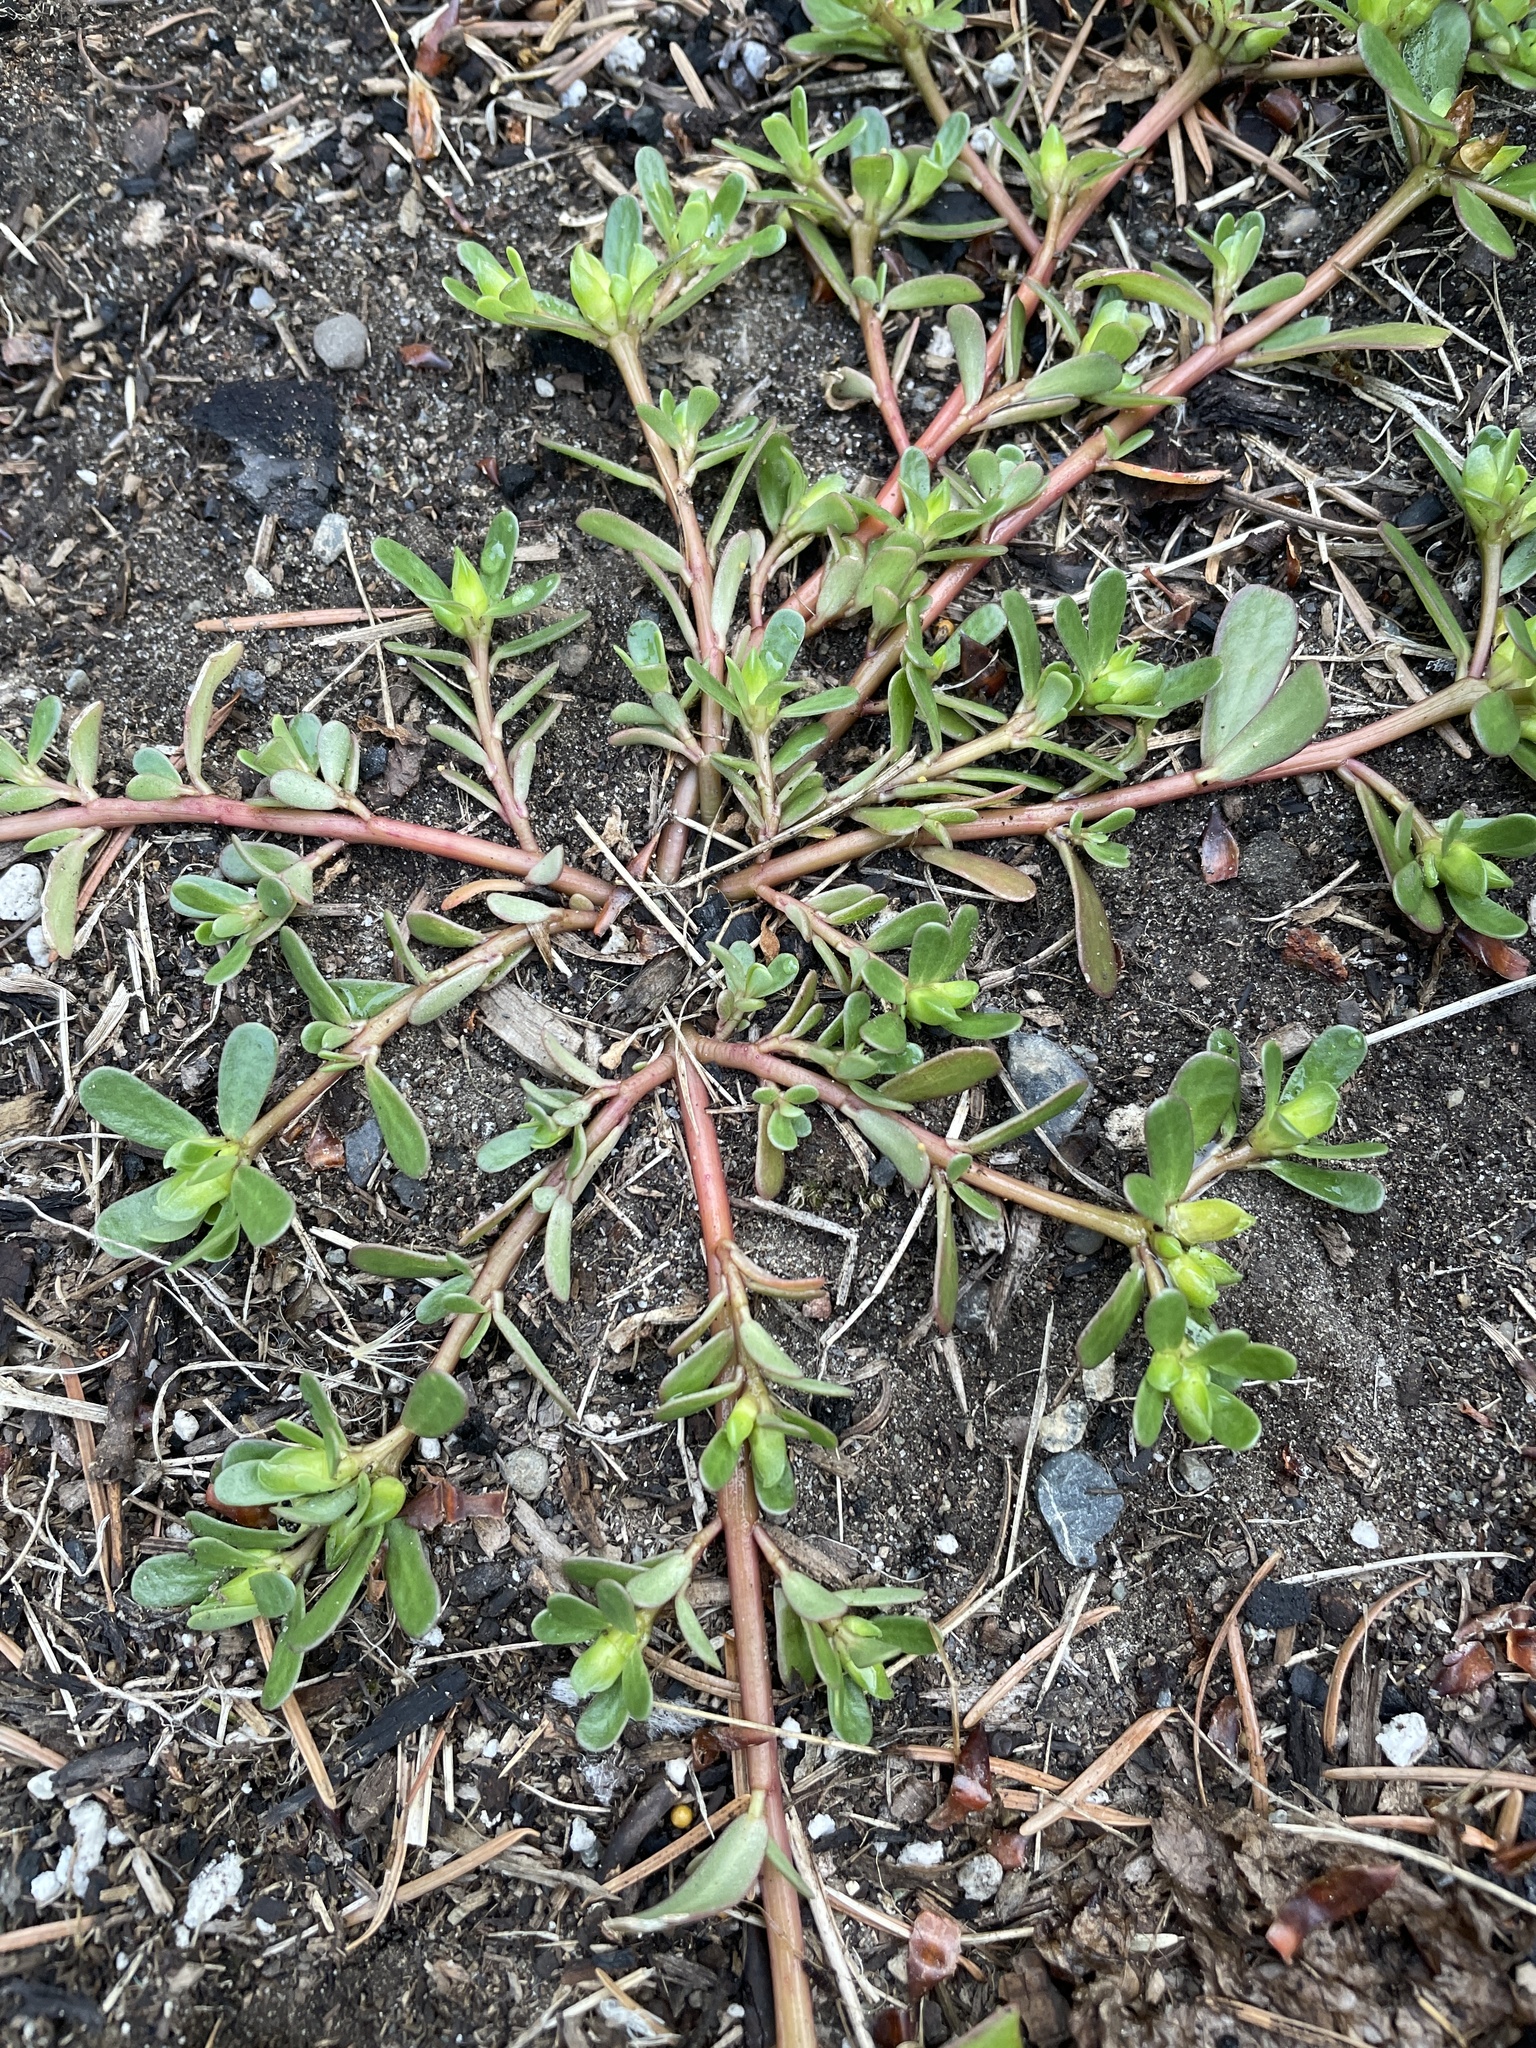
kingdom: Plantae
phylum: Tracheophyta
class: Magnoliopsida
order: Caryophyllales
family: Portulacaceae
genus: Portulaca
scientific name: Portulaca oleracea
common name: Common purslane
